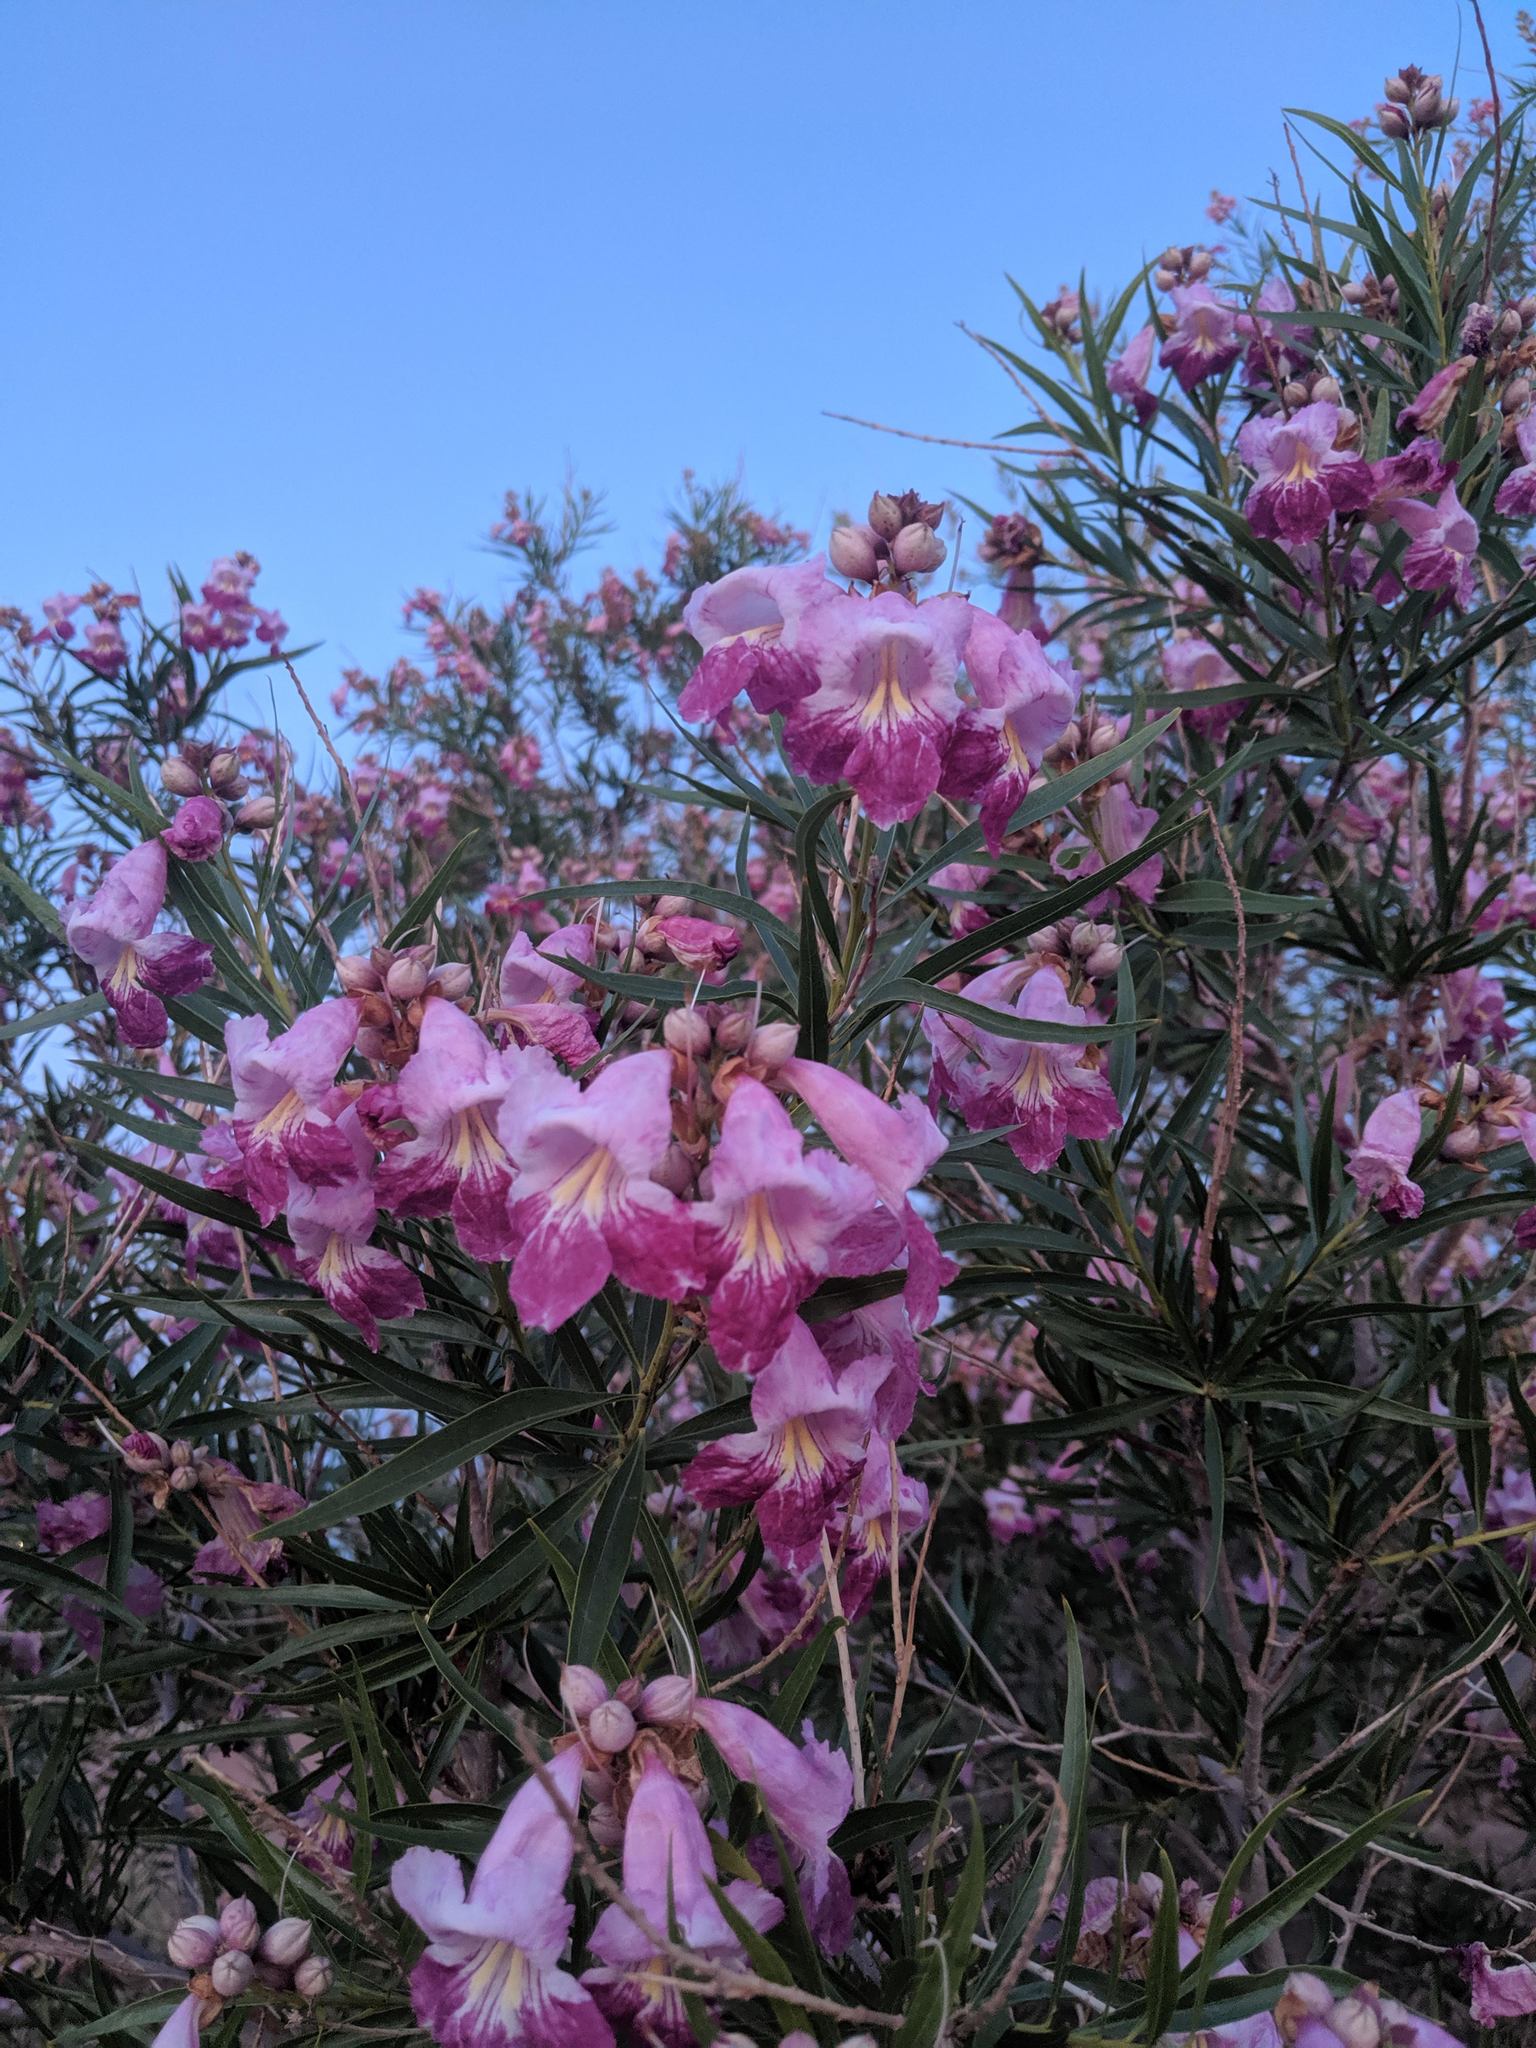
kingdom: Plantae
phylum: Tracheophyta
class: Magnoliopsida
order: Lamiales
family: Bignoniaceae
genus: Chilopsis
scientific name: Chilopsis linearis
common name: Desert-willow
